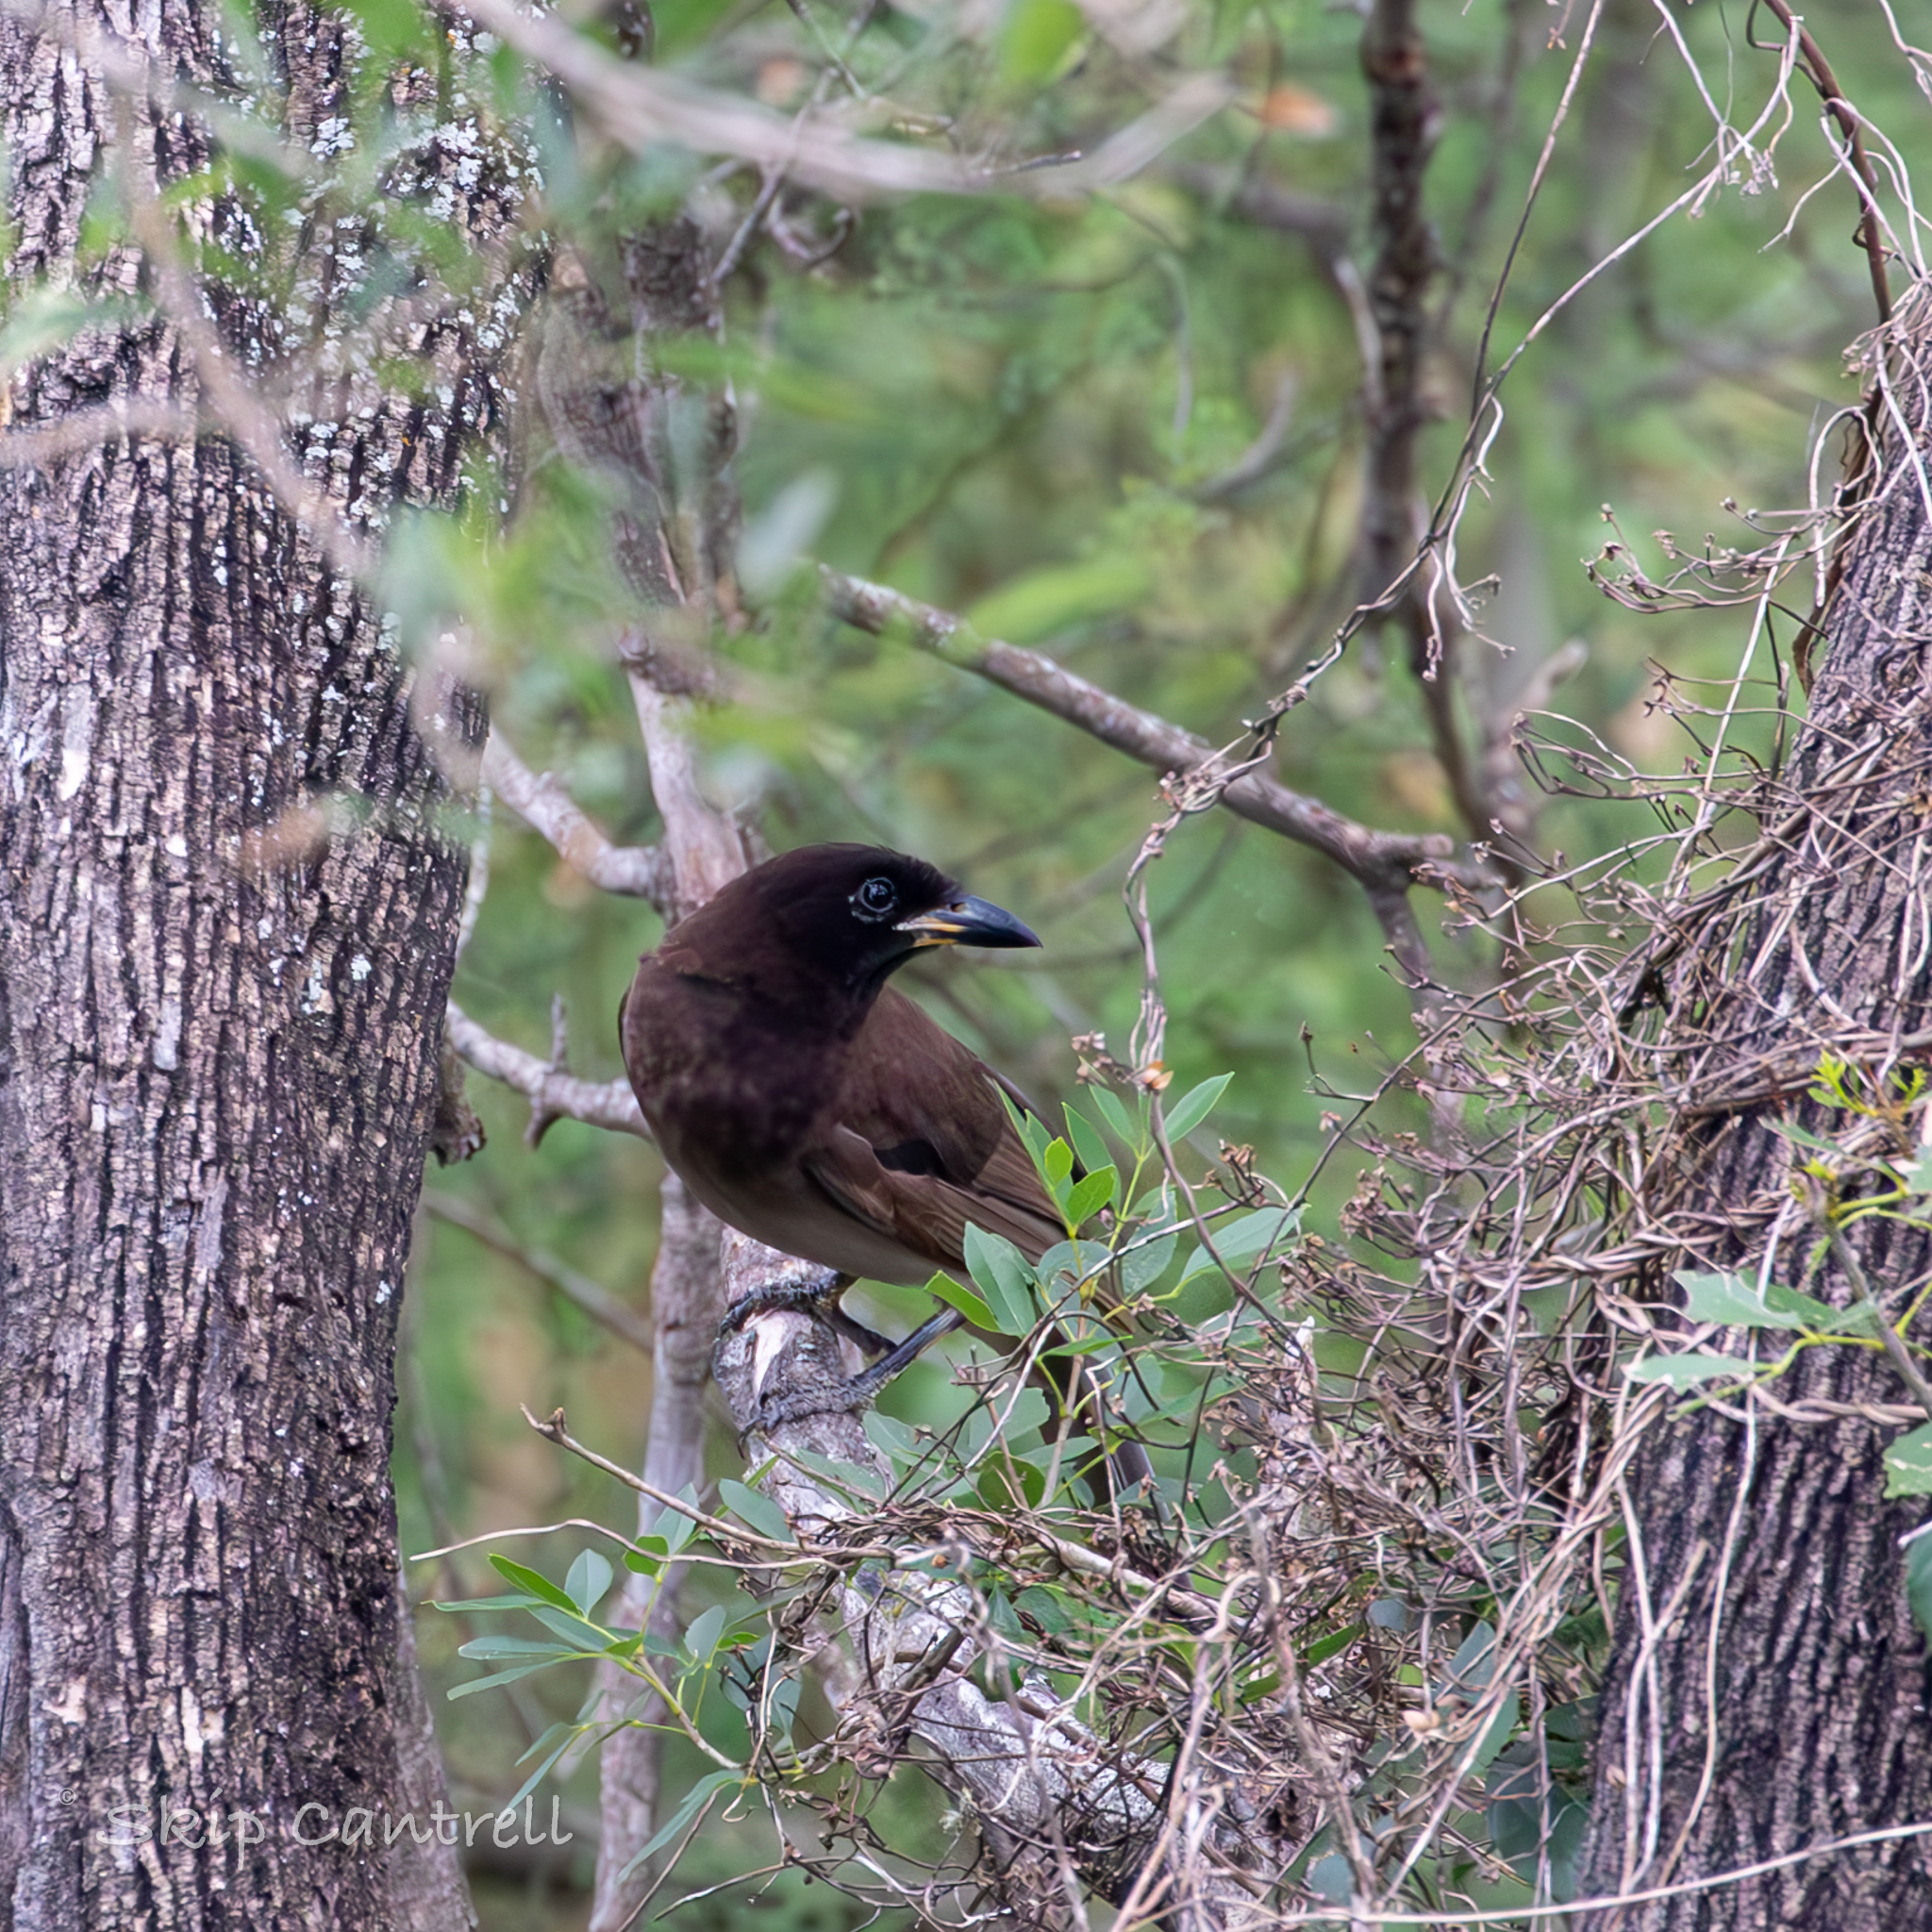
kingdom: Animalia
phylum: Chordata
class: Aves
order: Passeriformes
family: Corvidae
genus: Psilorhinus
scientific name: Psilorhinus morio
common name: Brown jay
